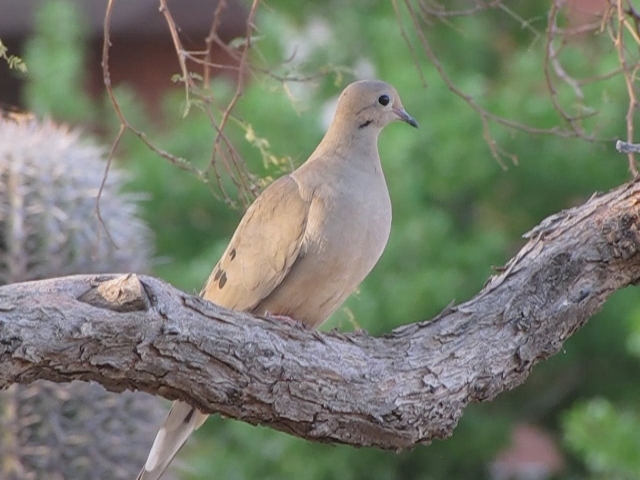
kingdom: Animalia
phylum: Chordata
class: Aves
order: Columbiformes
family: Columbidae
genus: Zenaida
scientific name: Zenaida macroura
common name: Mourning dove
